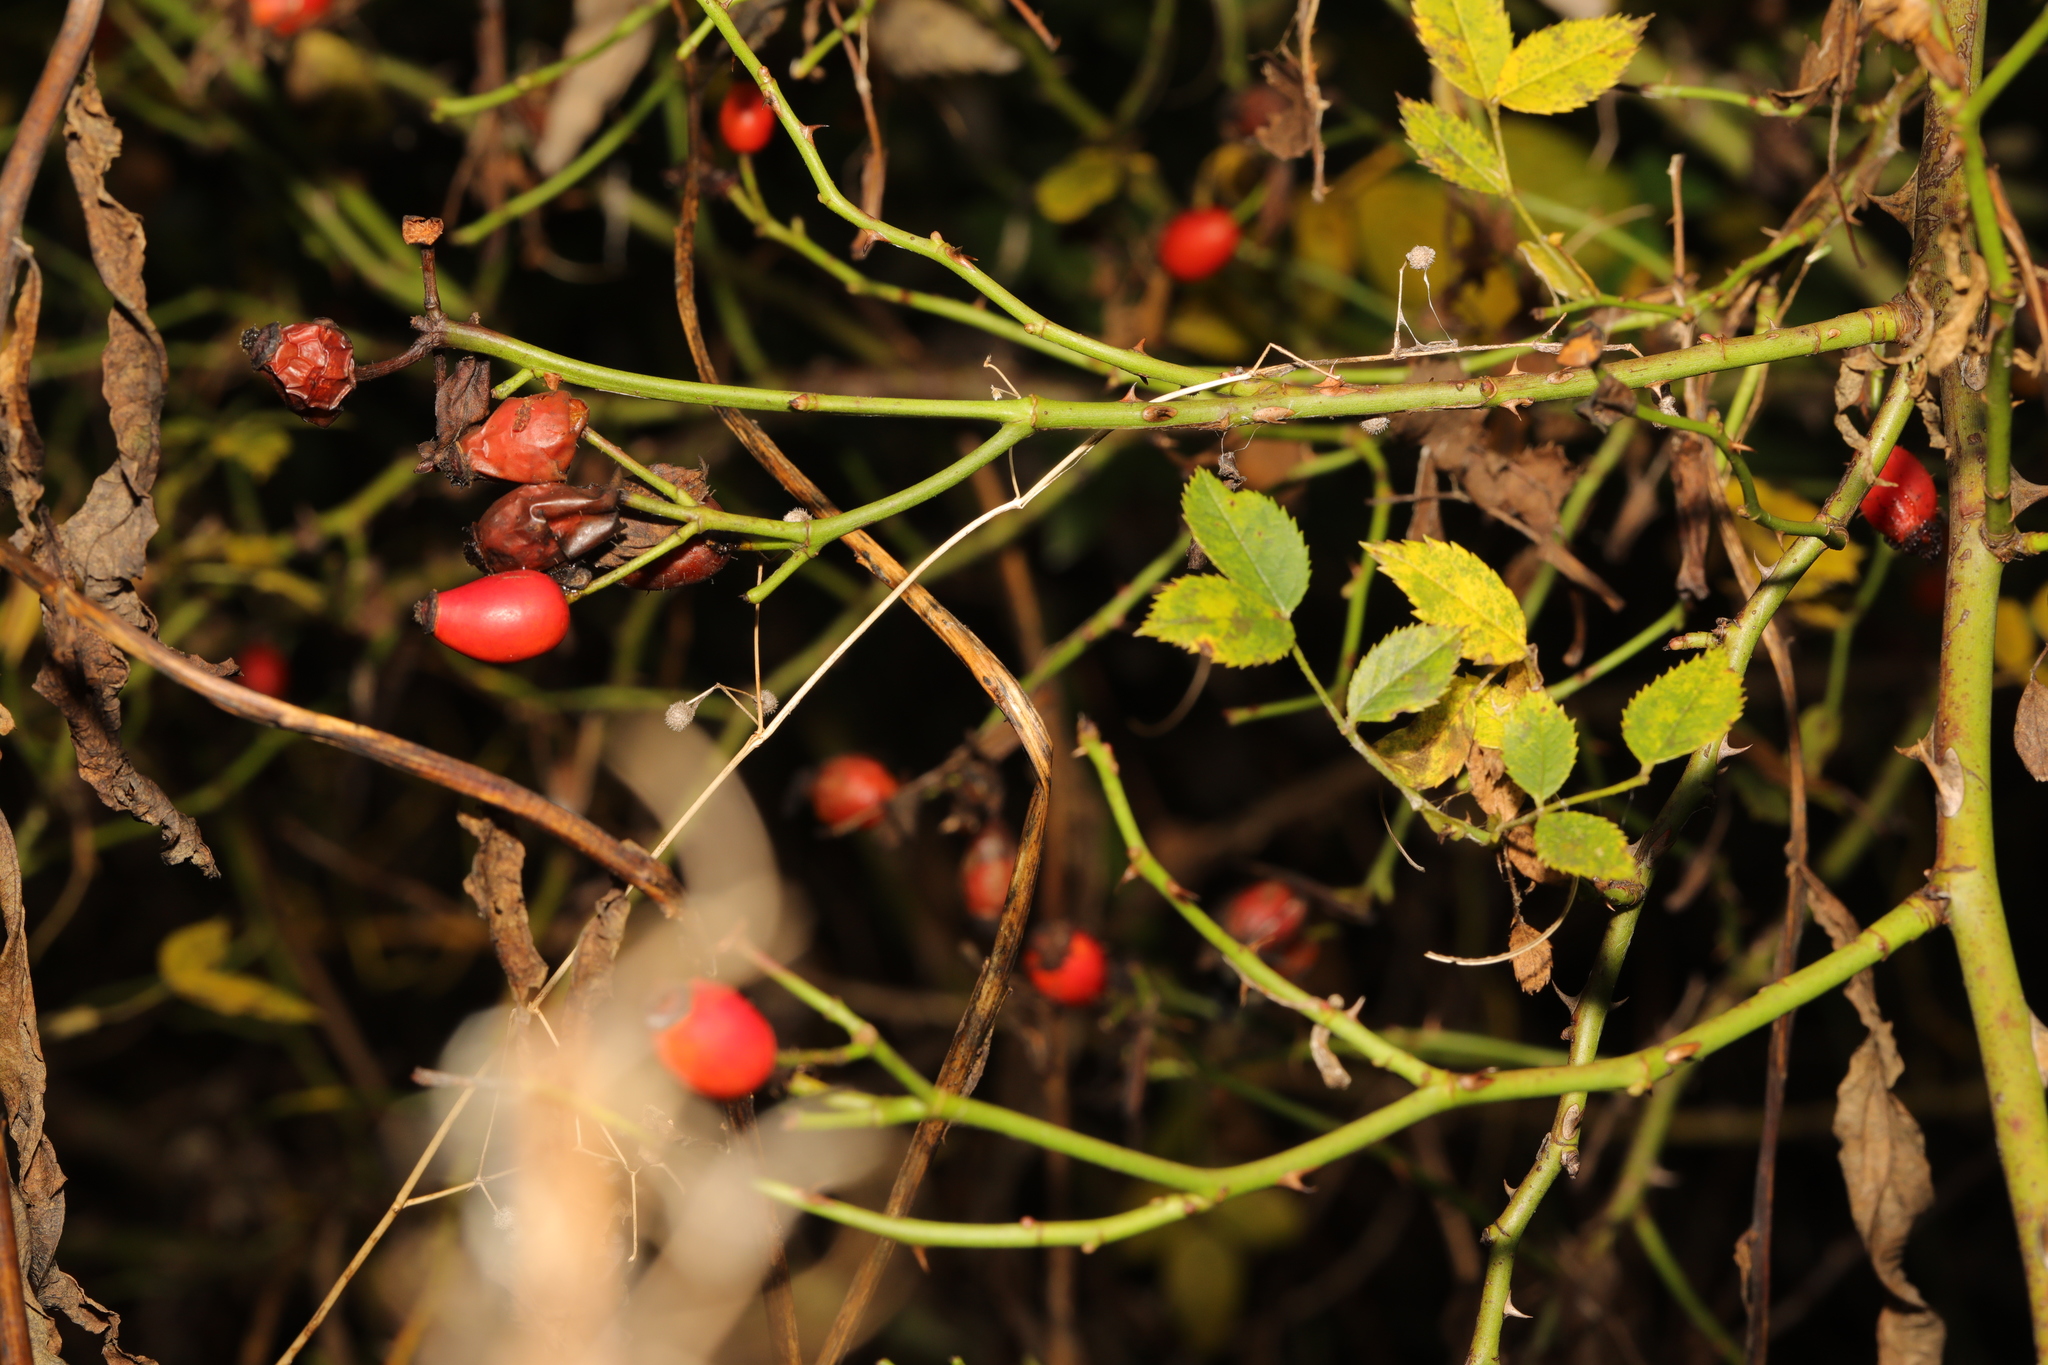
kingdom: Plantae
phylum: Tracheophyta
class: Magnoliopsida
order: Rosales
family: Rosaceae
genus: Rosa
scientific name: Rosa canina
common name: Dog rose
